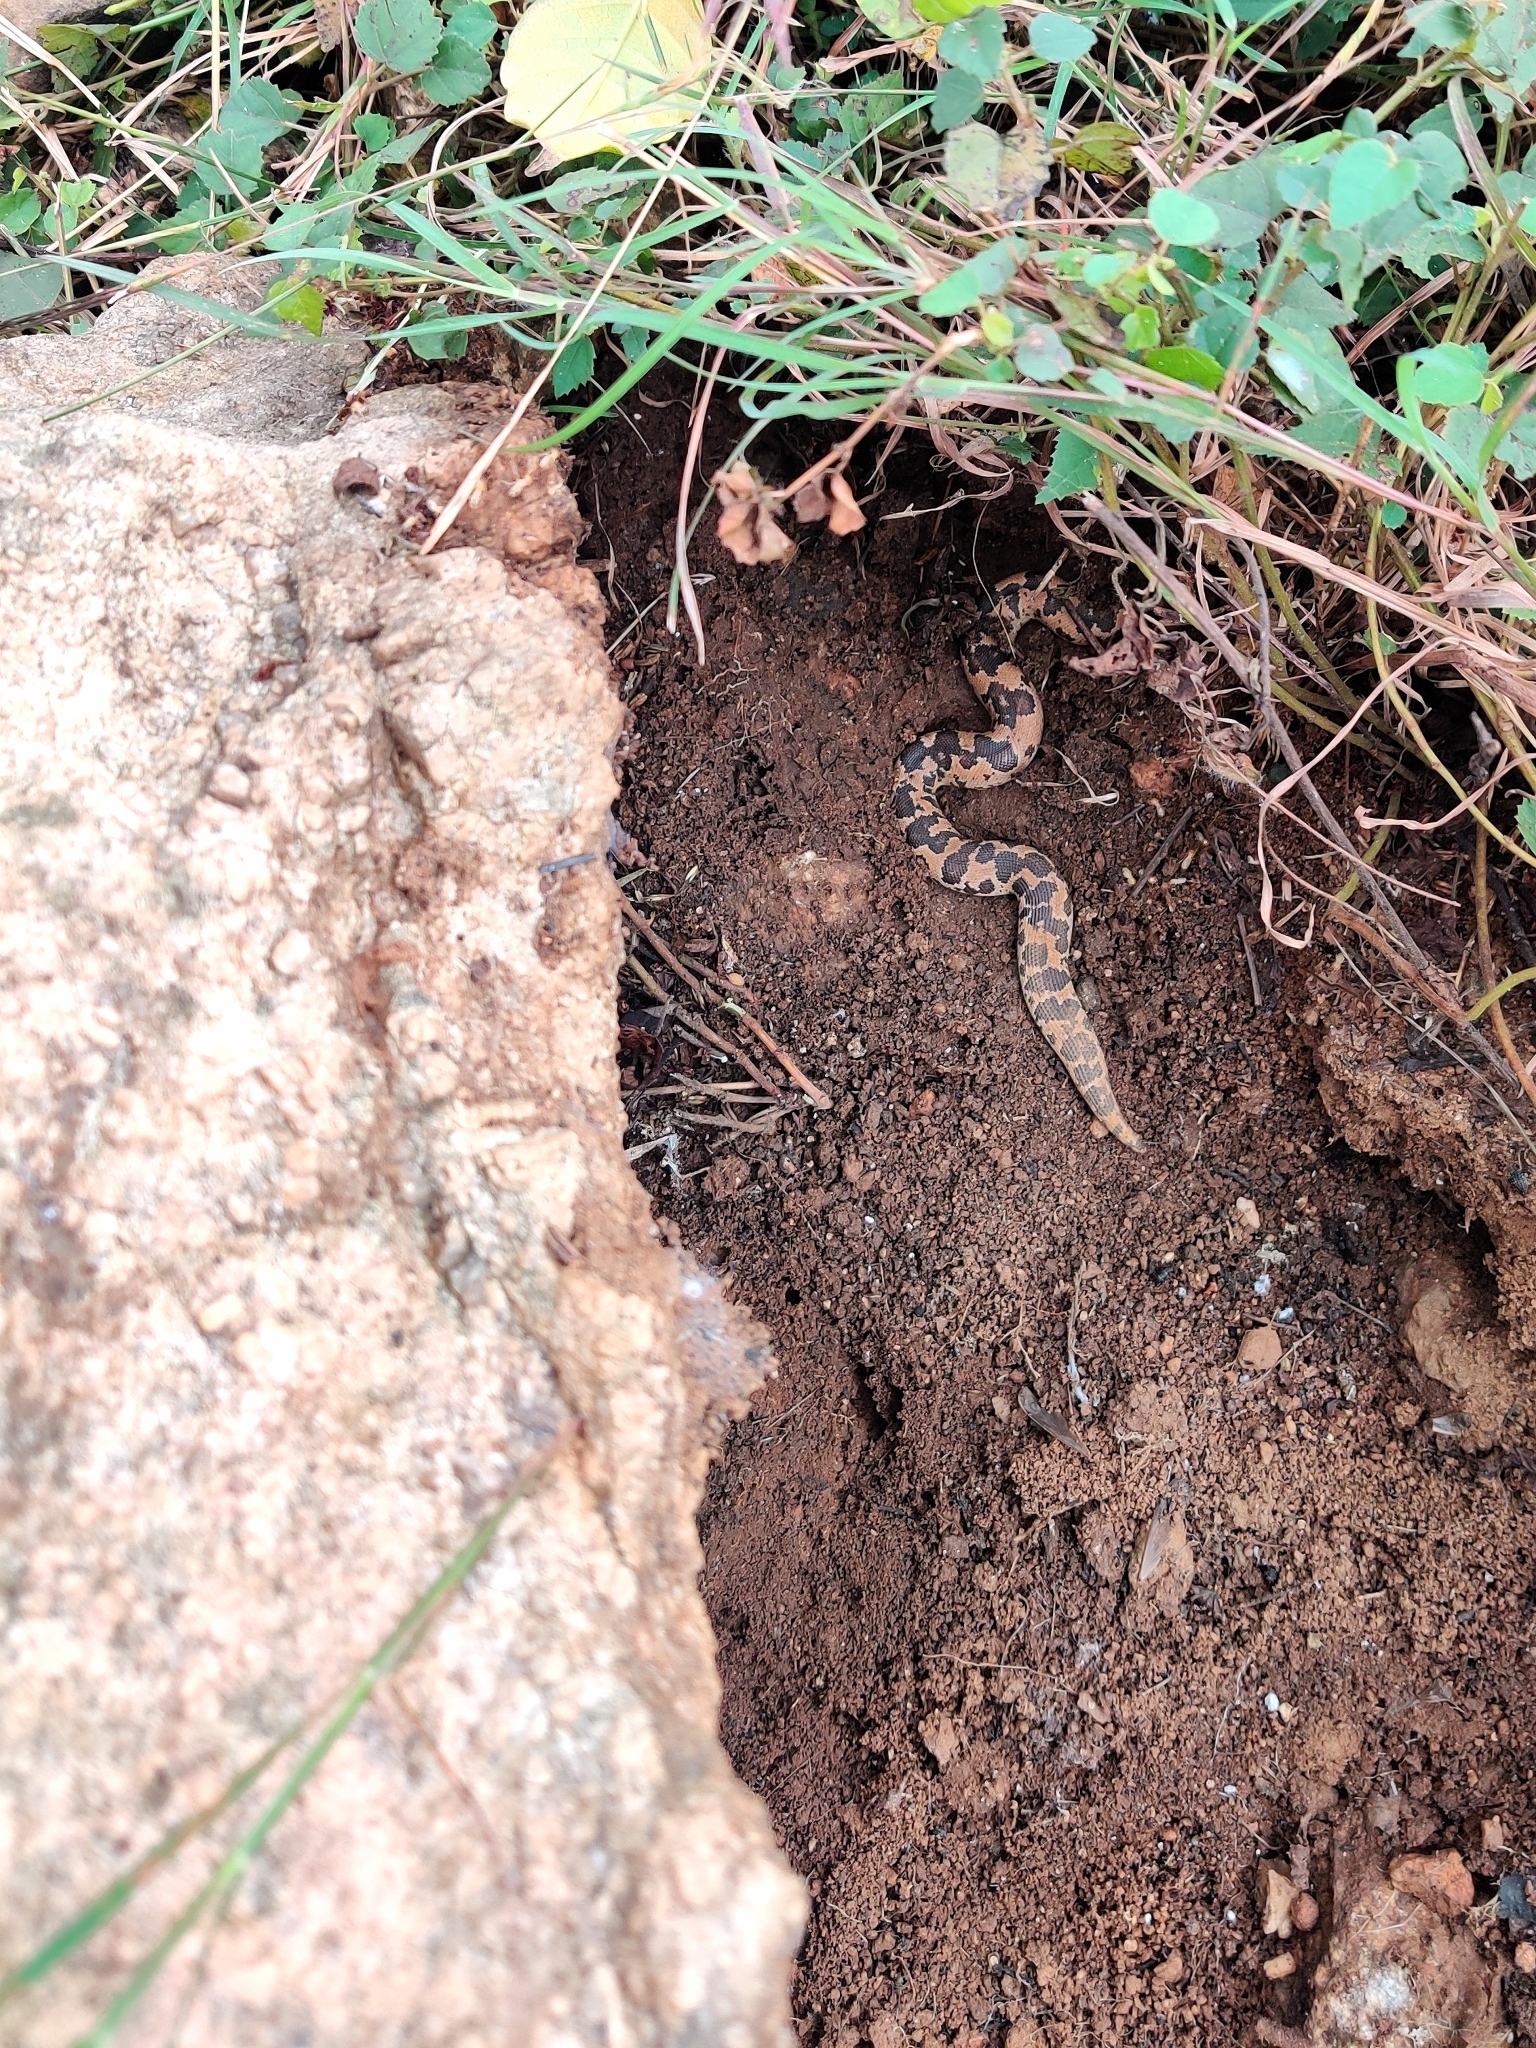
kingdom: Animalia
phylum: Chordata
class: Squamata
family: Boidae
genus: Eryx
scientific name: Eryx conicus
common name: Rough-tailed sand boa
